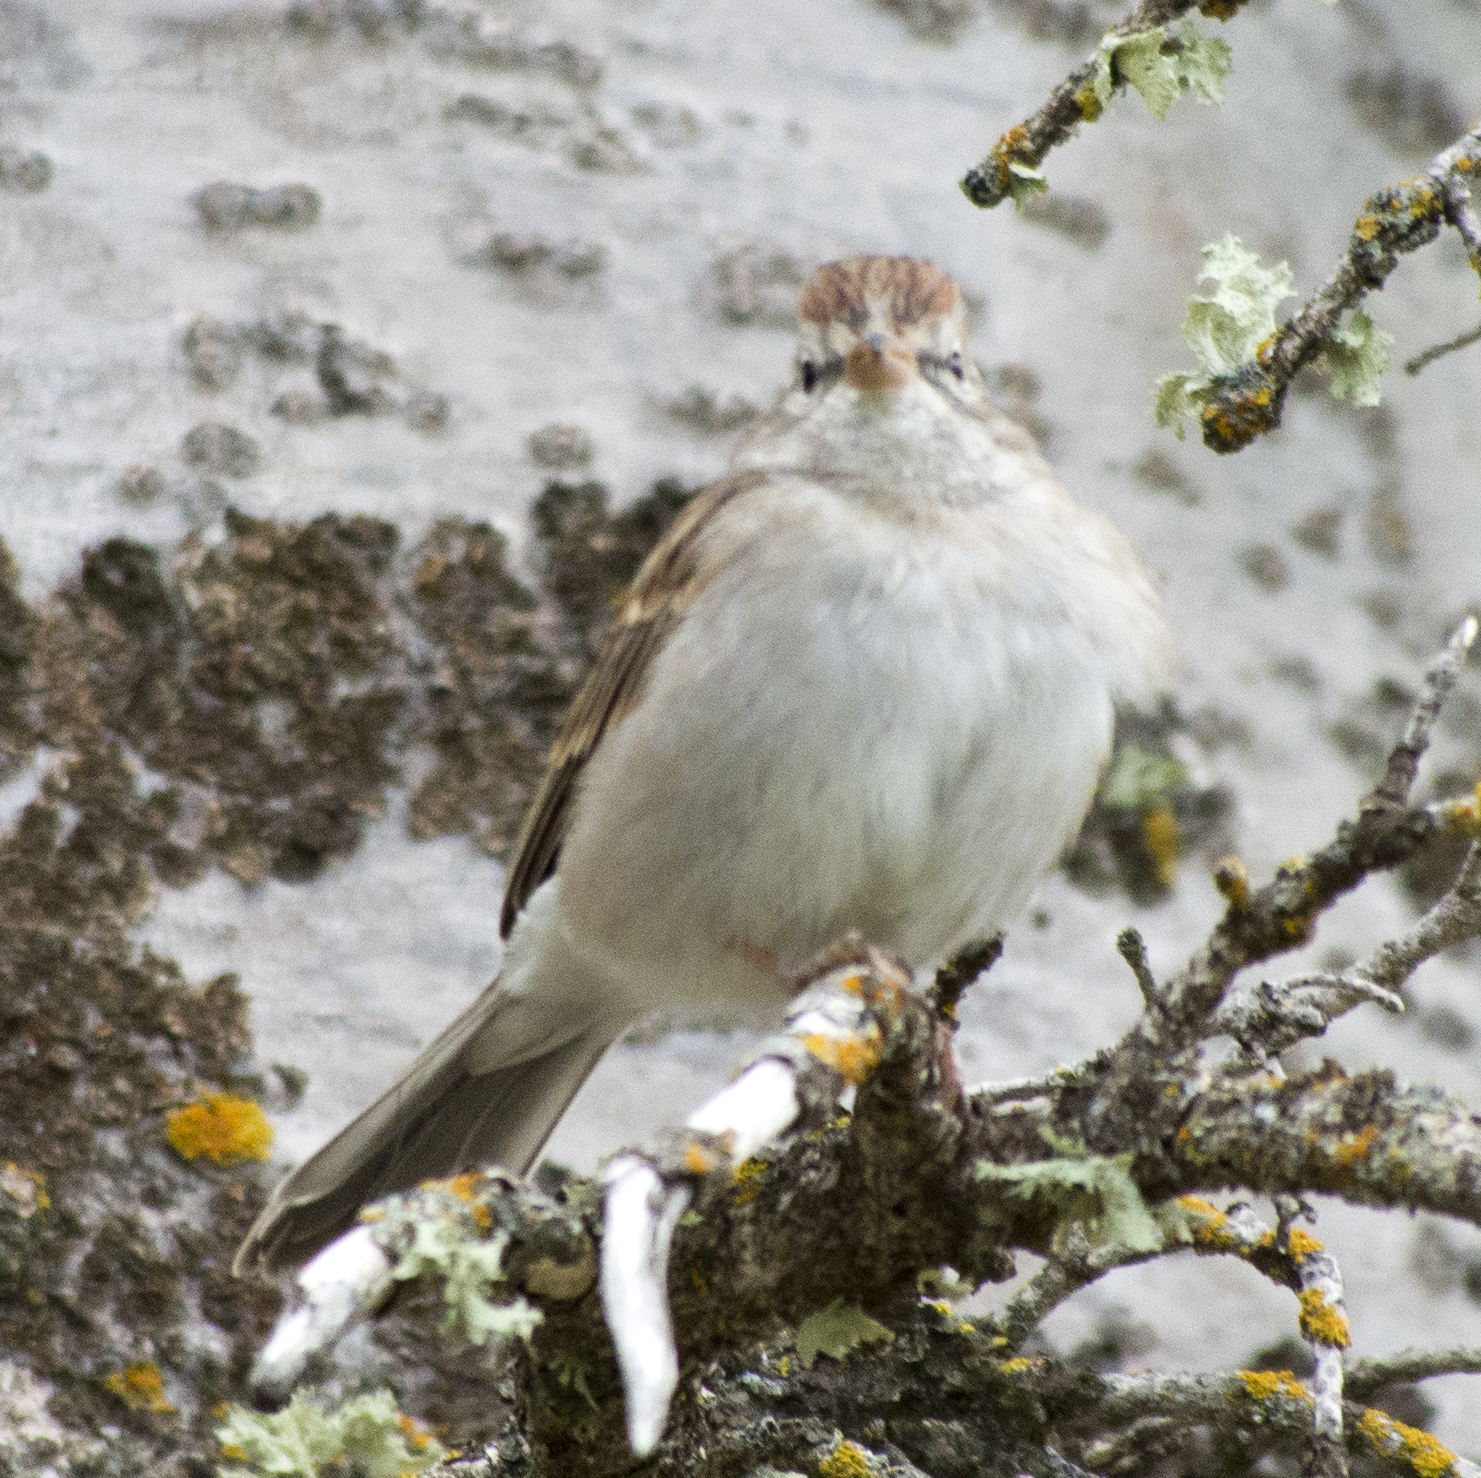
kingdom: Animalia
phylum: Chordata
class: Aves
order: Passeriformes
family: Passerellidae
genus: Spizella
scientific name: Spizella passerina
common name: Chipping sparrow
